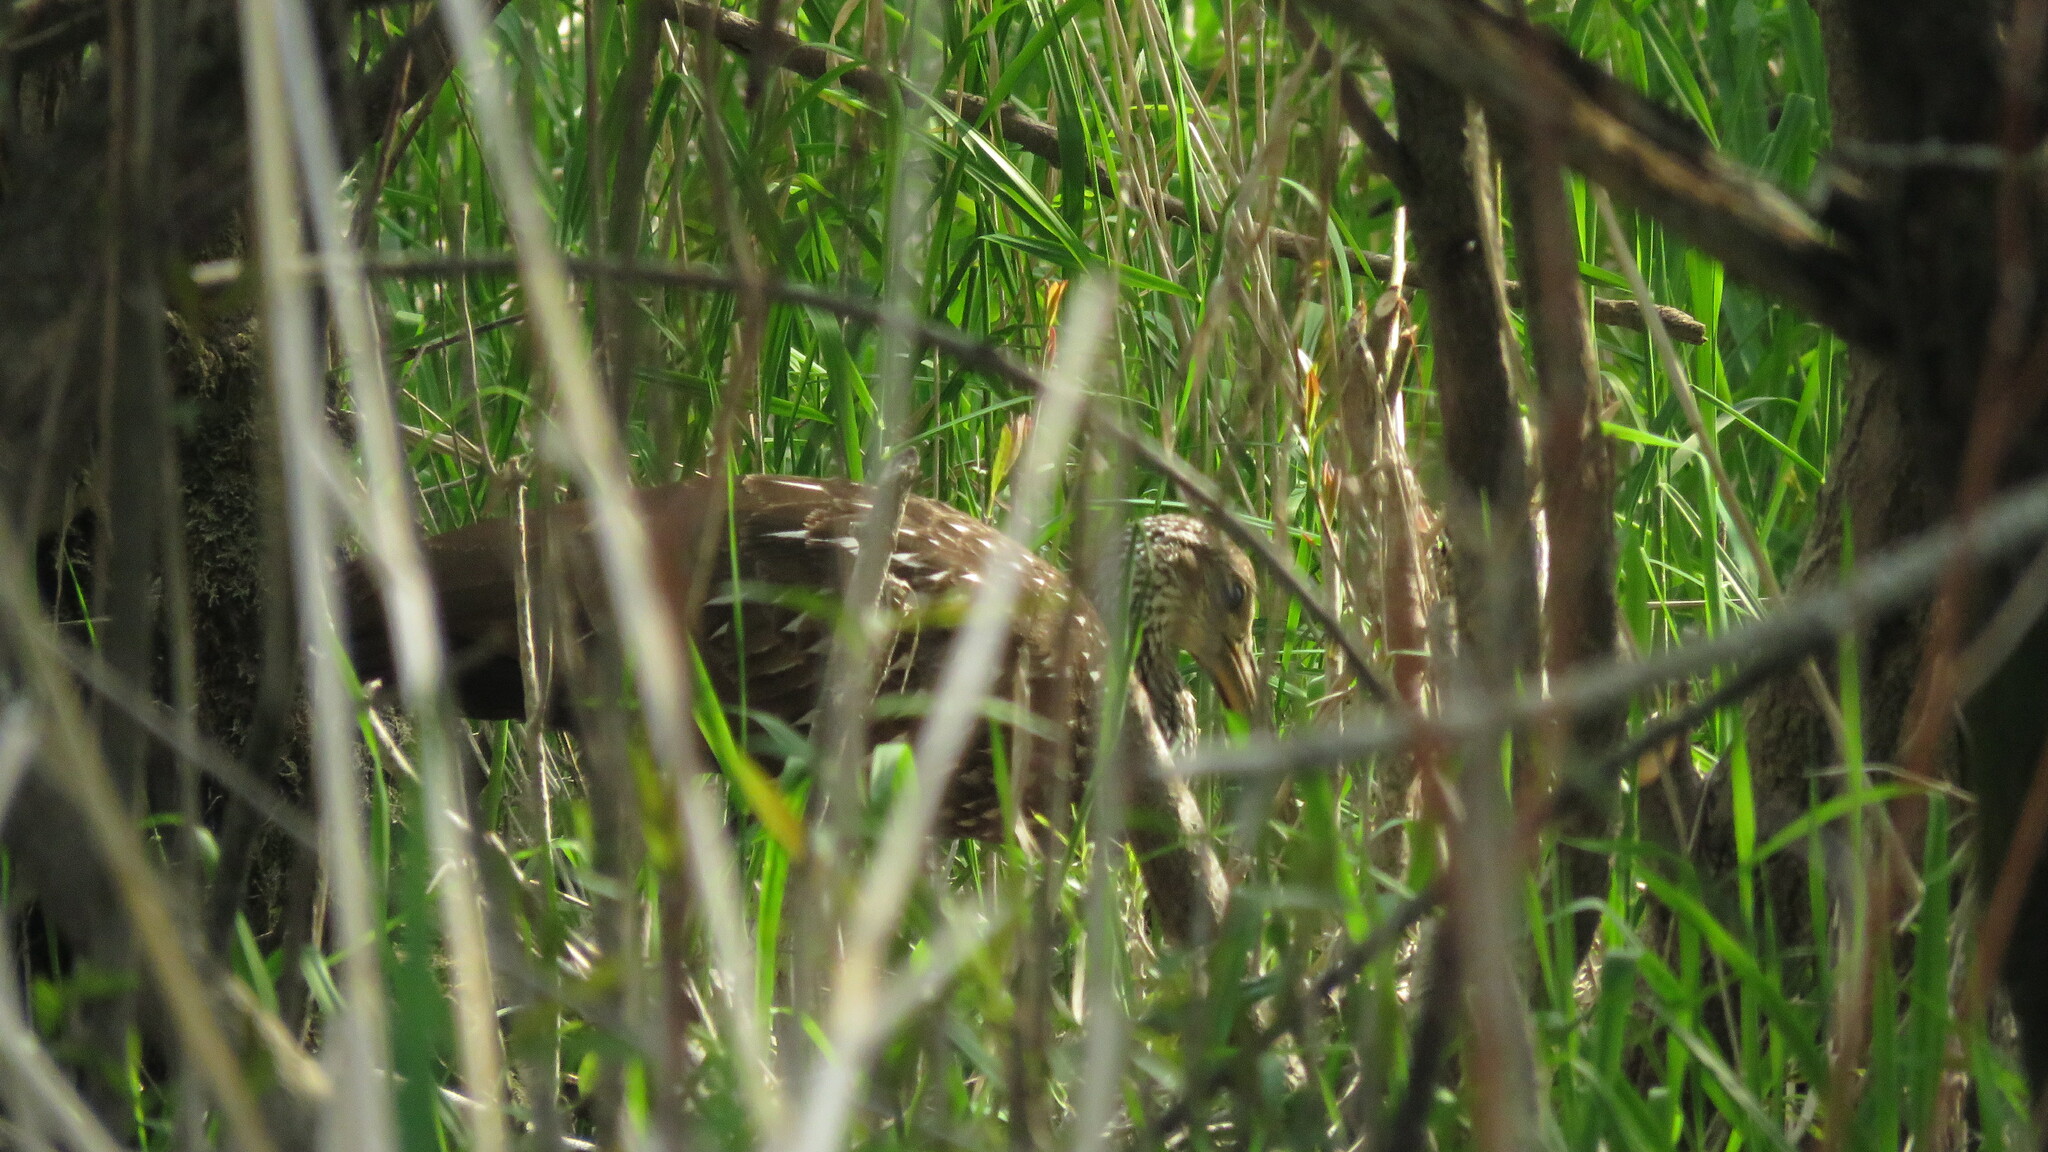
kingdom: Animalia
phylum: Chordata
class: Aves
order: Gruiformes
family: Aramidae
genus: Aramus
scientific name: Aramus guarauna
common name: Limpkin
